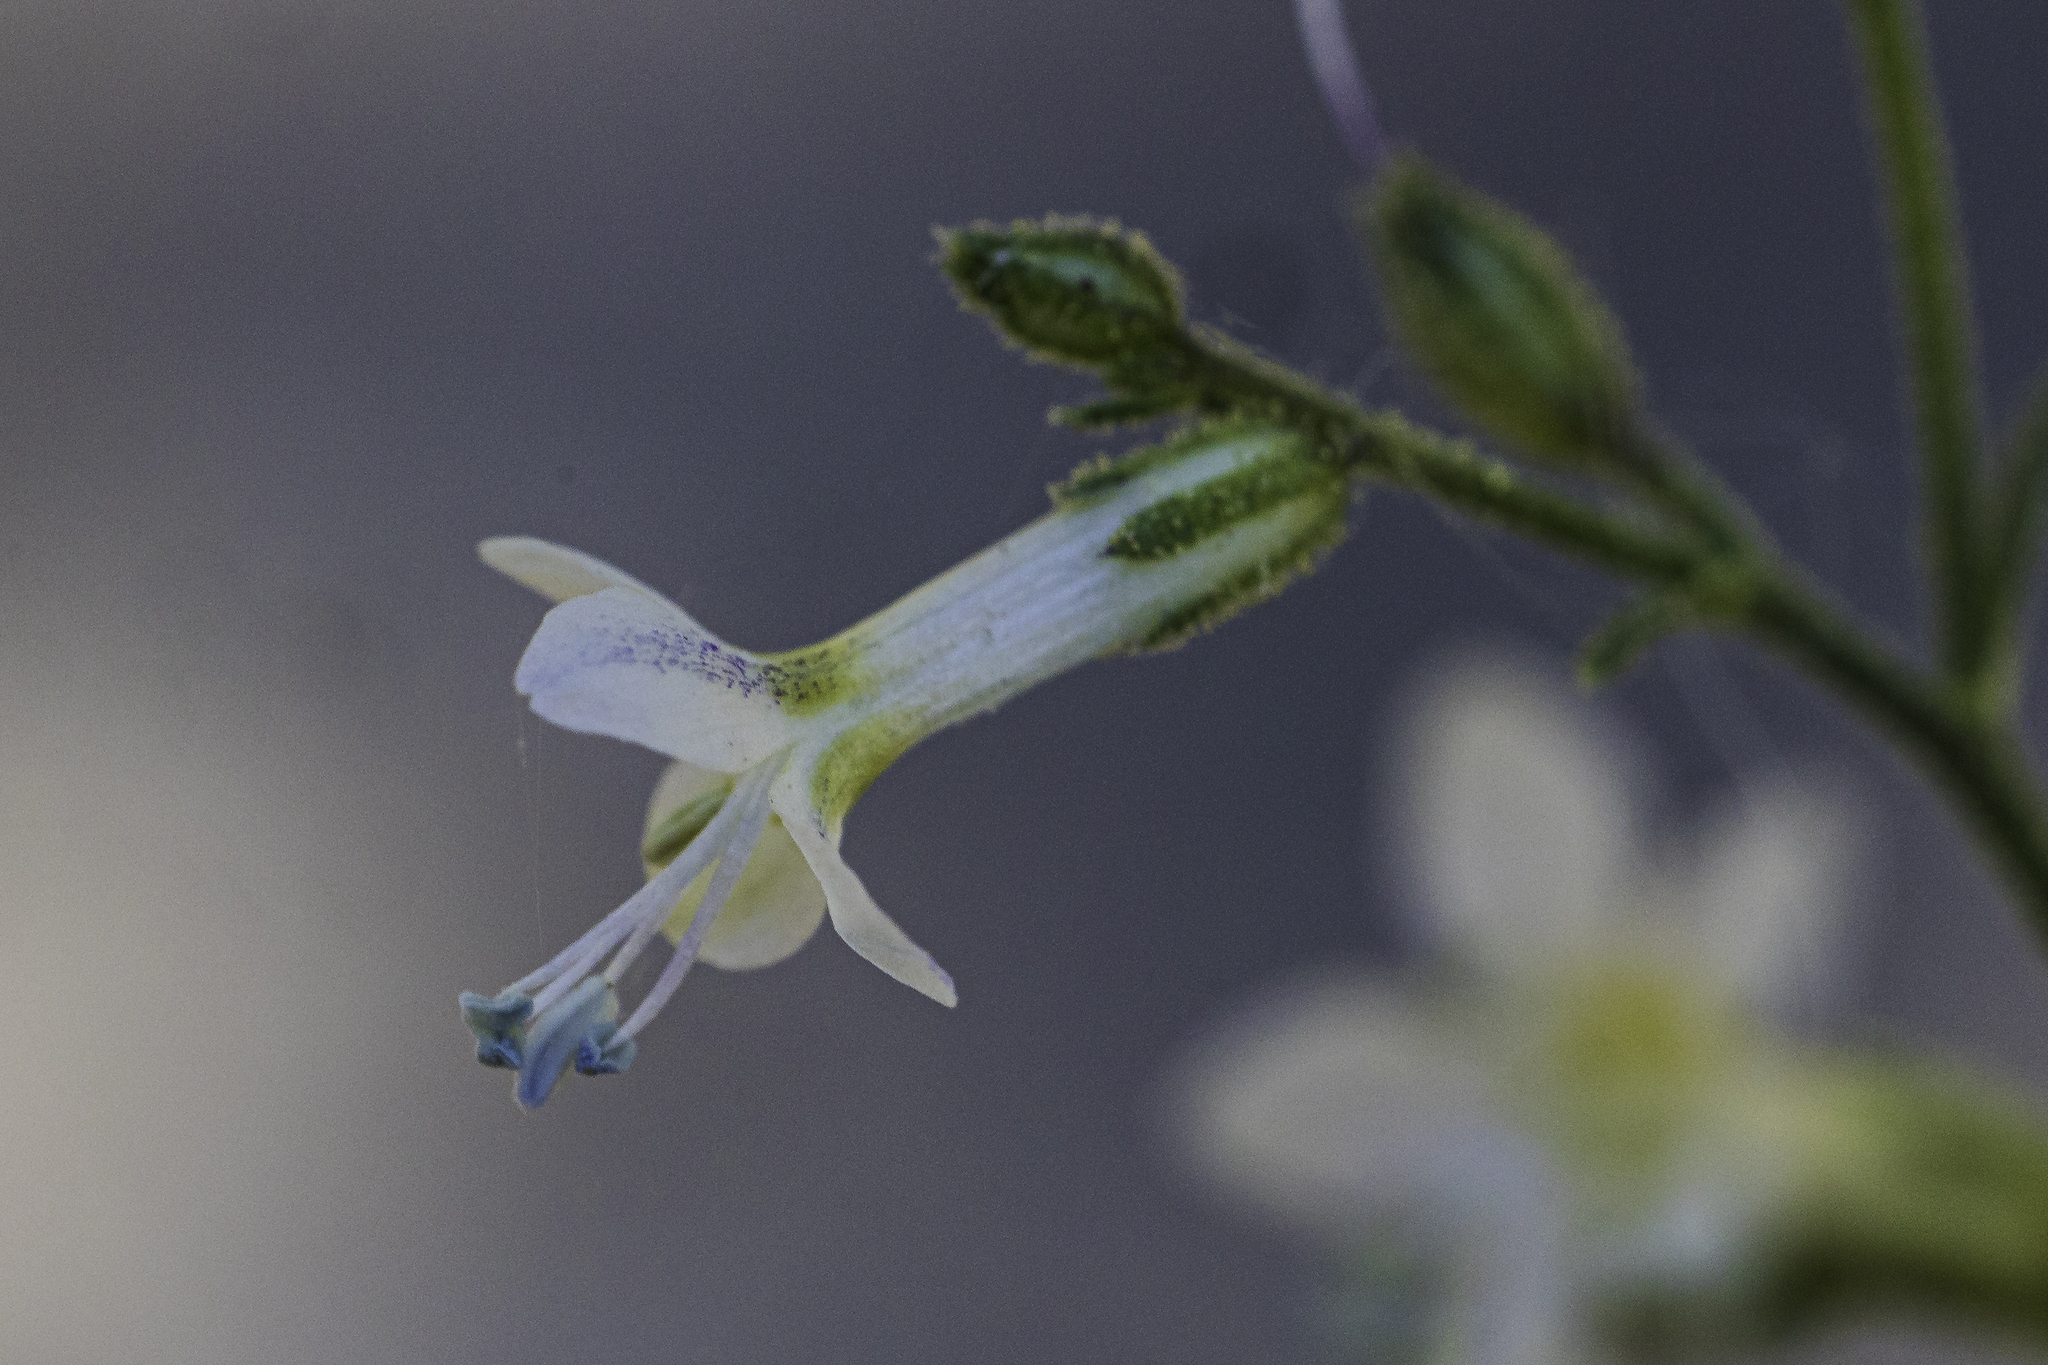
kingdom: Plantae
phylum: Tracheophyta
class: Magnoliopsida
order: Ericales
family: Polemoniaceae
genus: Aliciella
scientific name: Aliciella pinnatifida
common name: Sticky gilia
